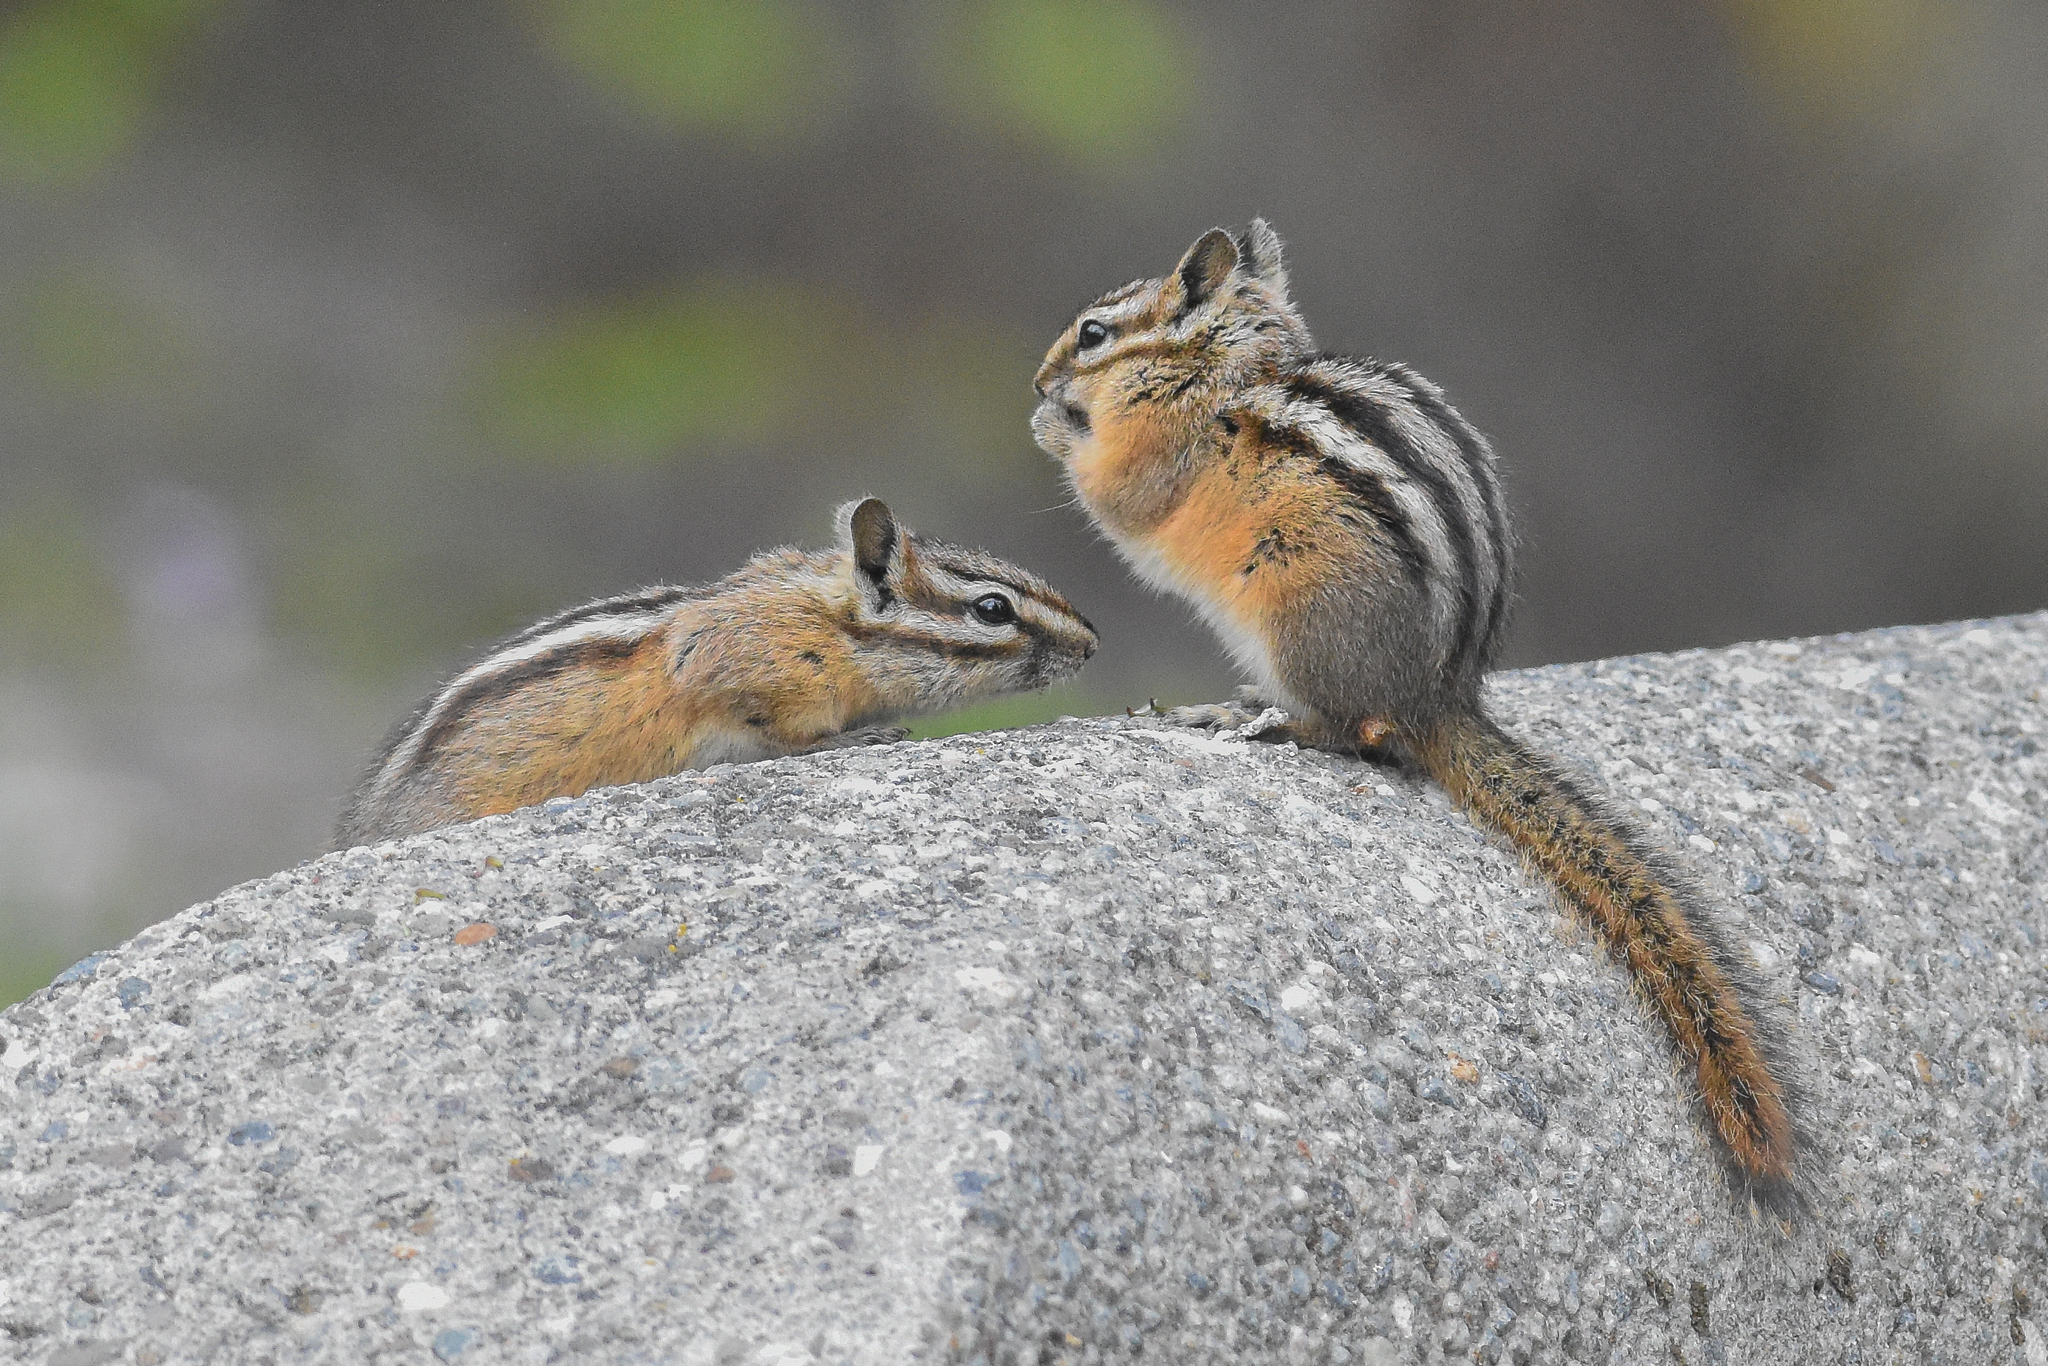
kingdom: Animalia
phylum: Chordata
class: Mammalia
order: Rodentia
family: Sciuridae
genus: Tamias
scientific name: Tamias amoenus
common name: Yellow-pine chipmunk
